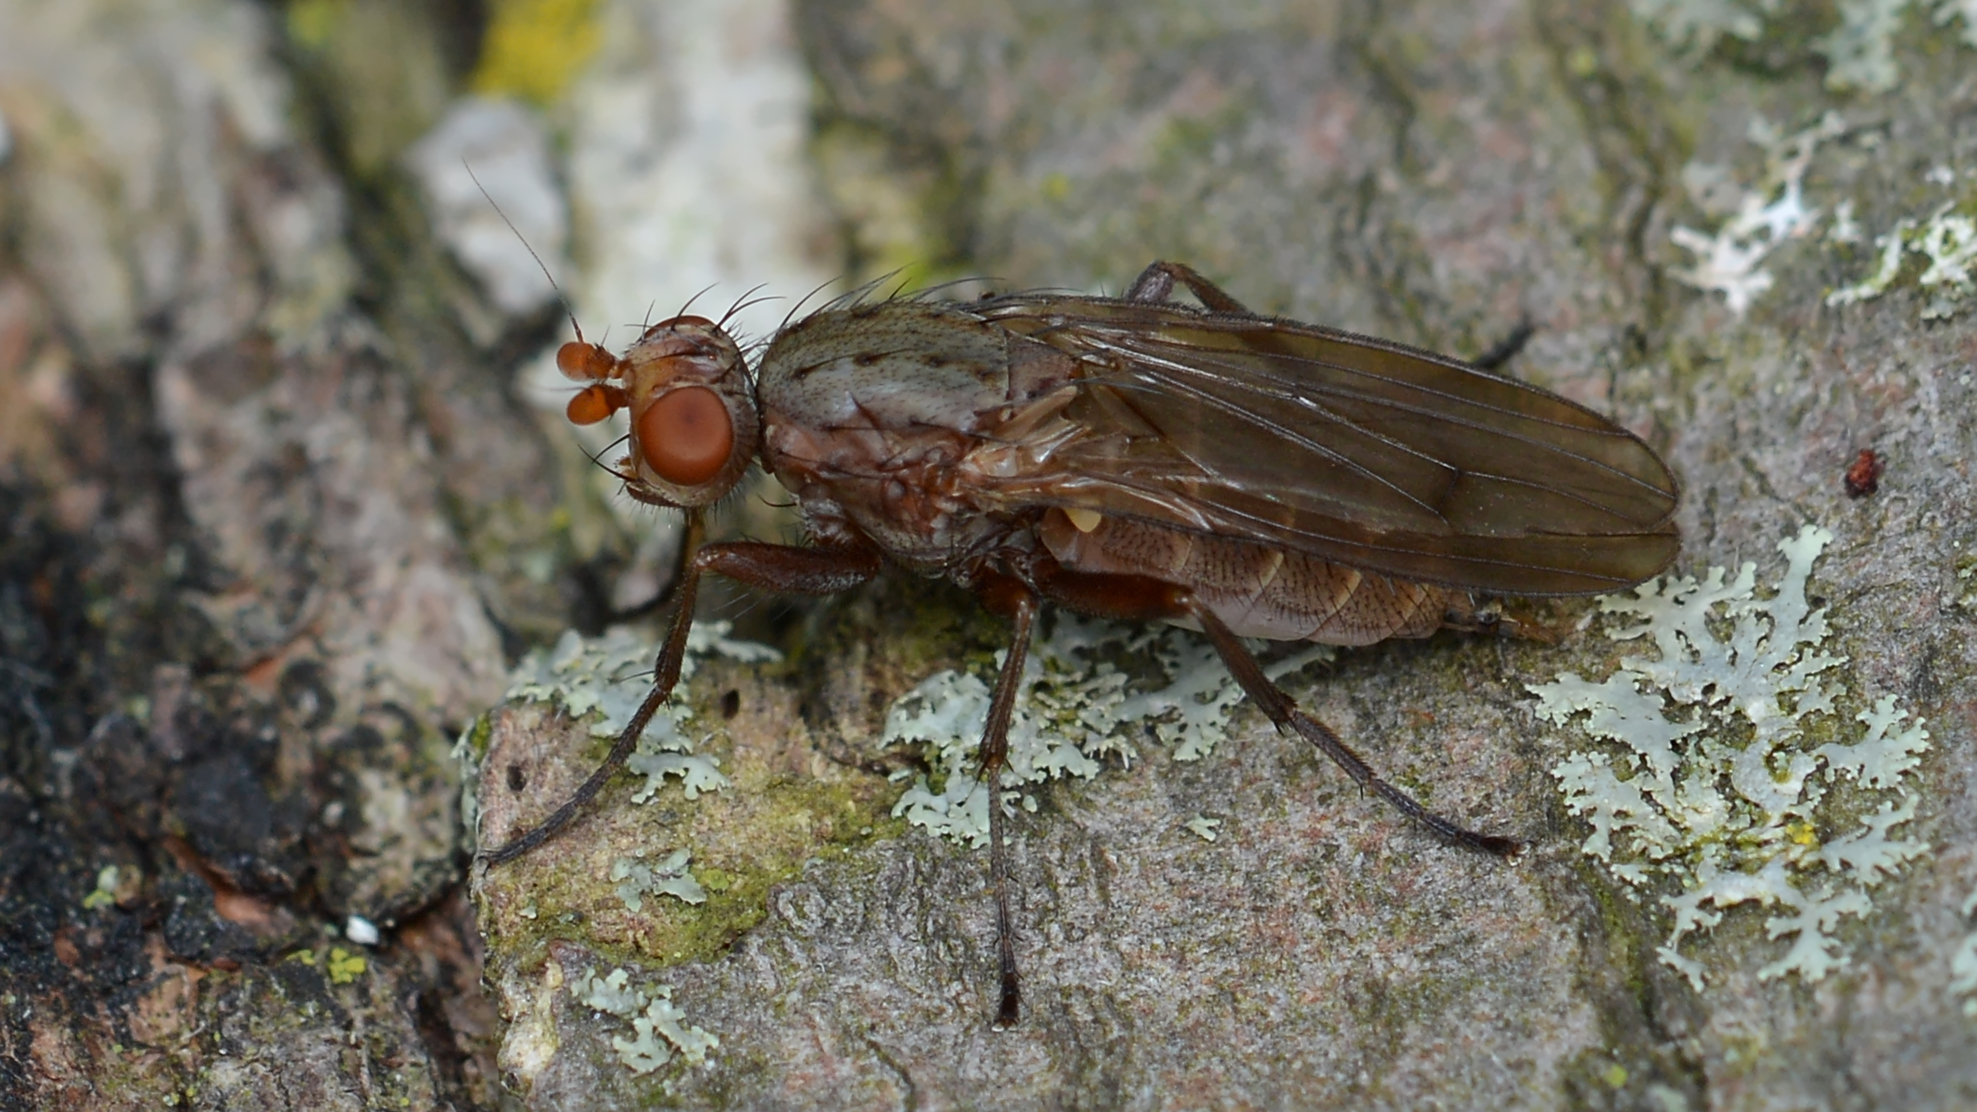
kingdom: Animalia
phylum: Arthropoda
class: Insecta
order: Diptera
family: Heleomyzidae
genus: Amoebaleria
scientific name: Amoebaleria defessa
